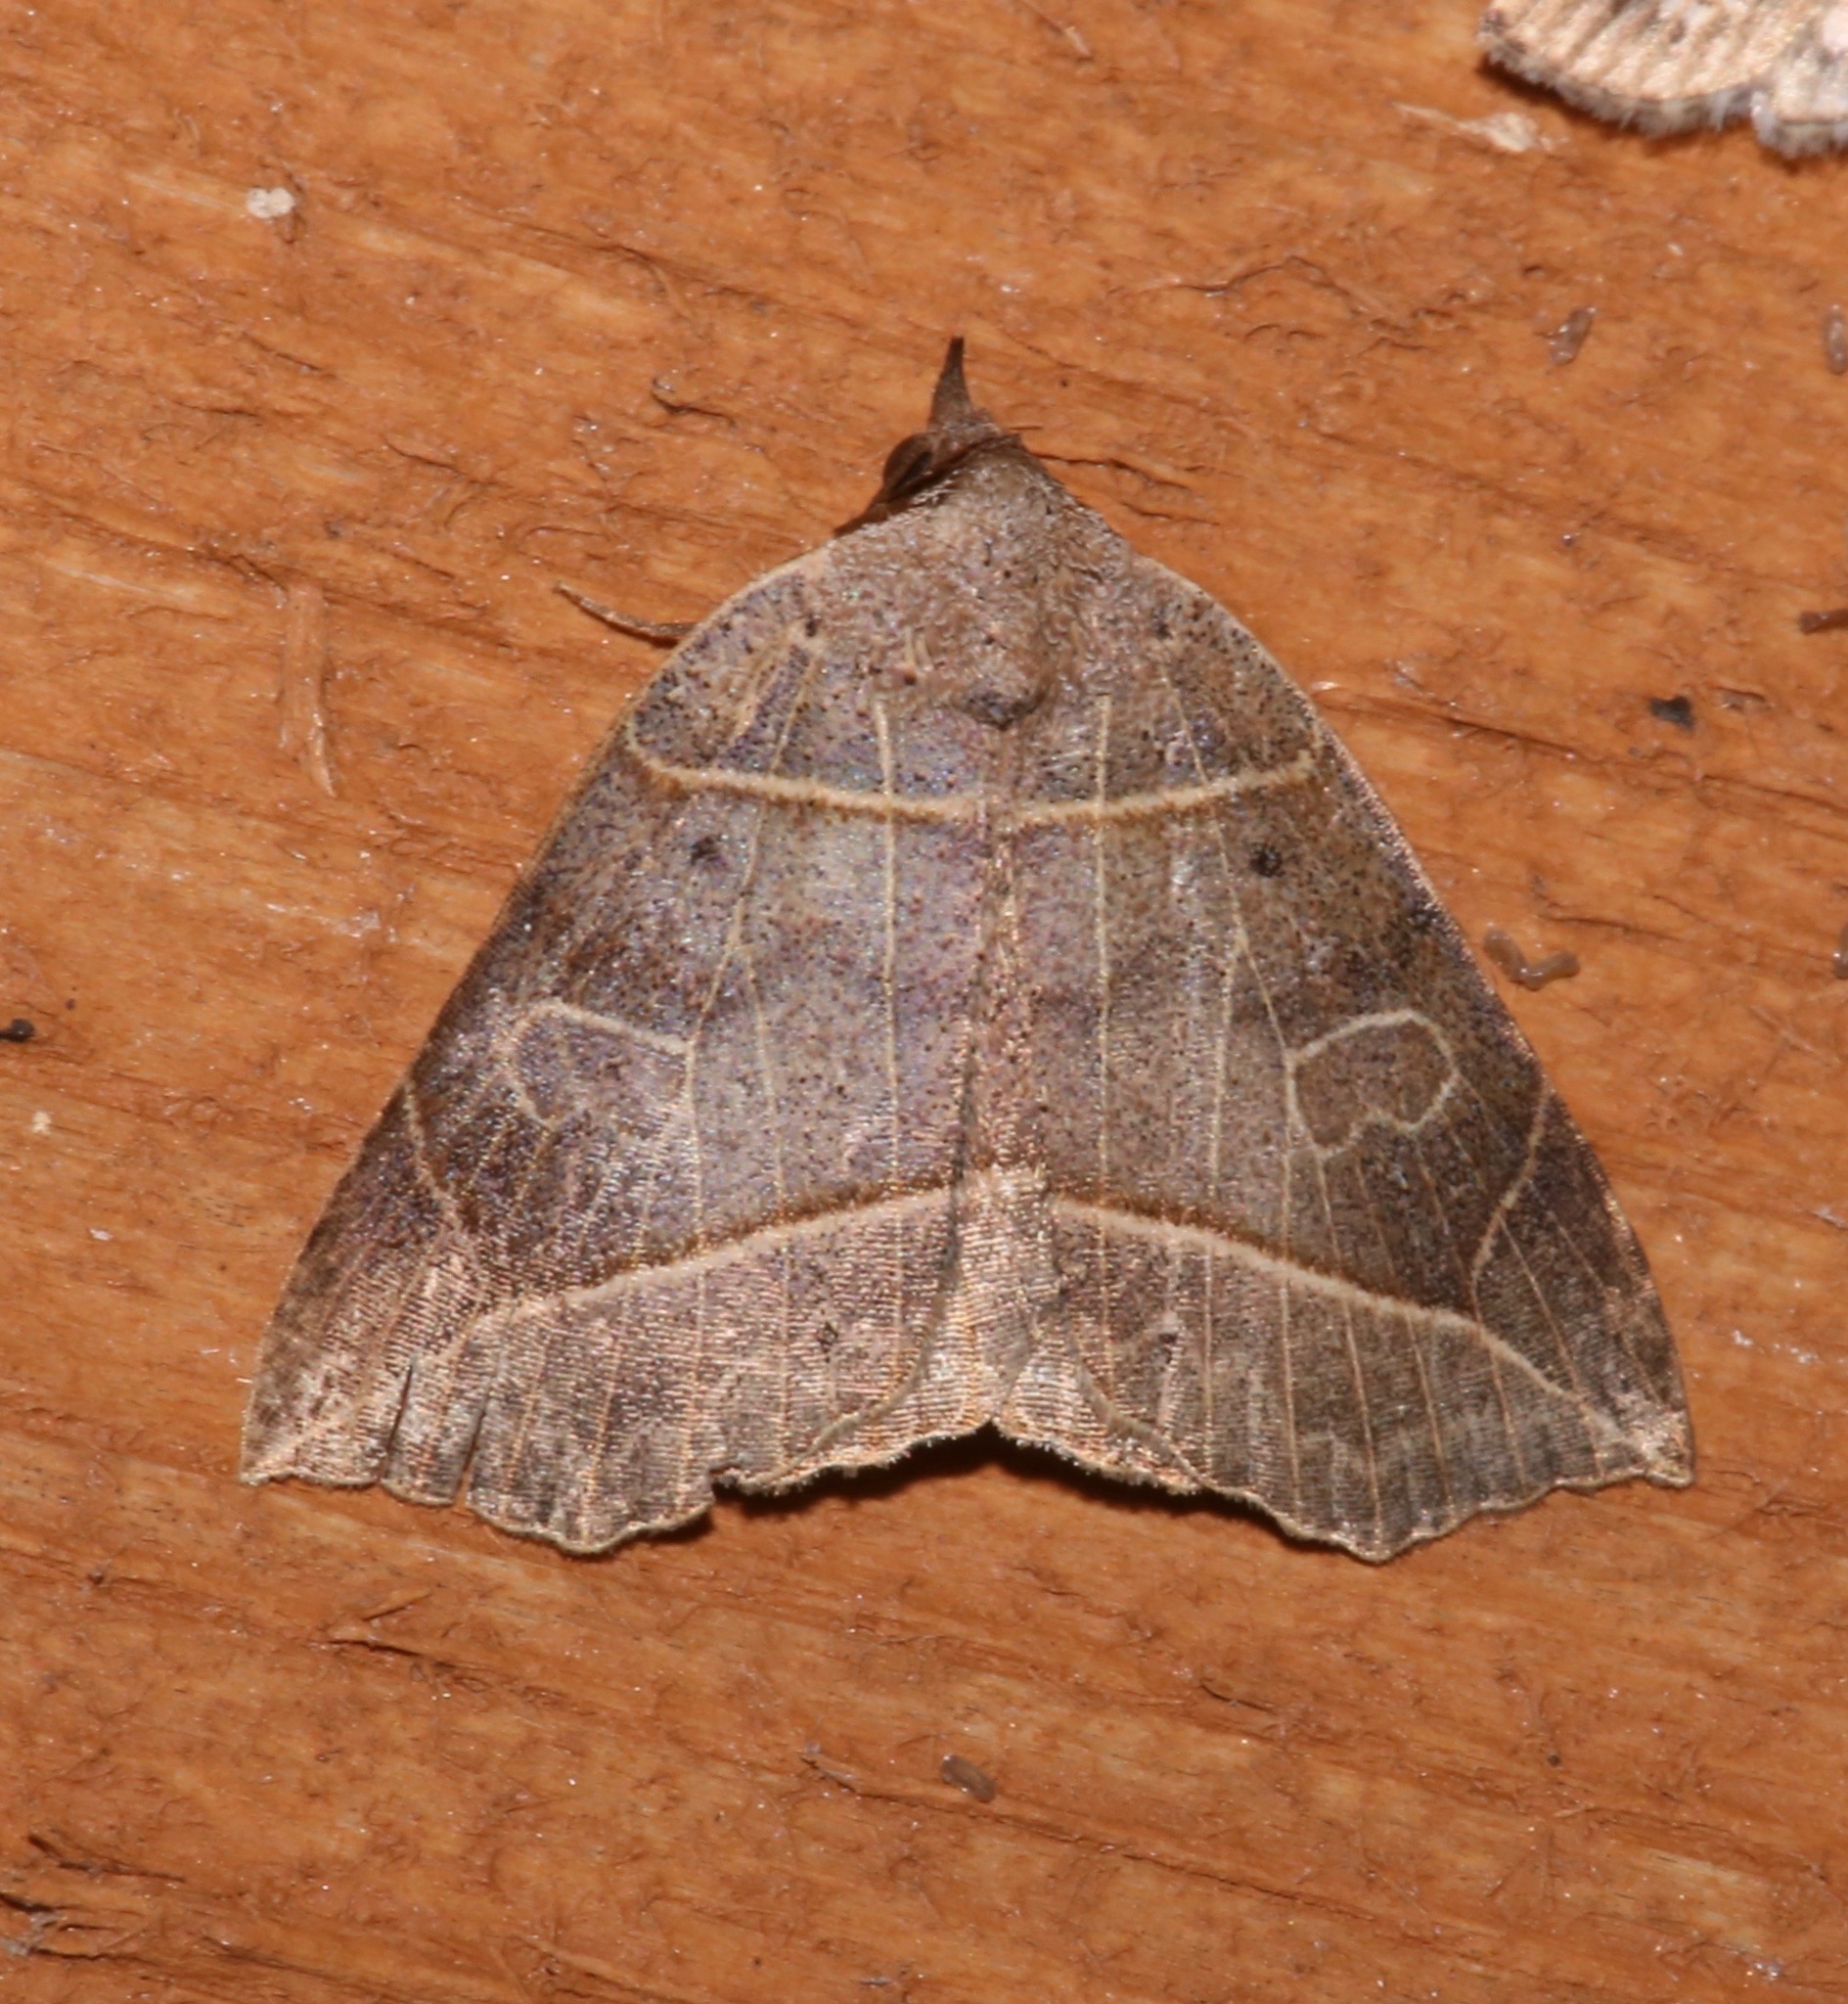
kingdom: Animalia
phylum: Arthropoda
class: Insecta
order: Lepidoptera
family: Erebidae
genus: Isogona
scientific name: Isogona tenuis
